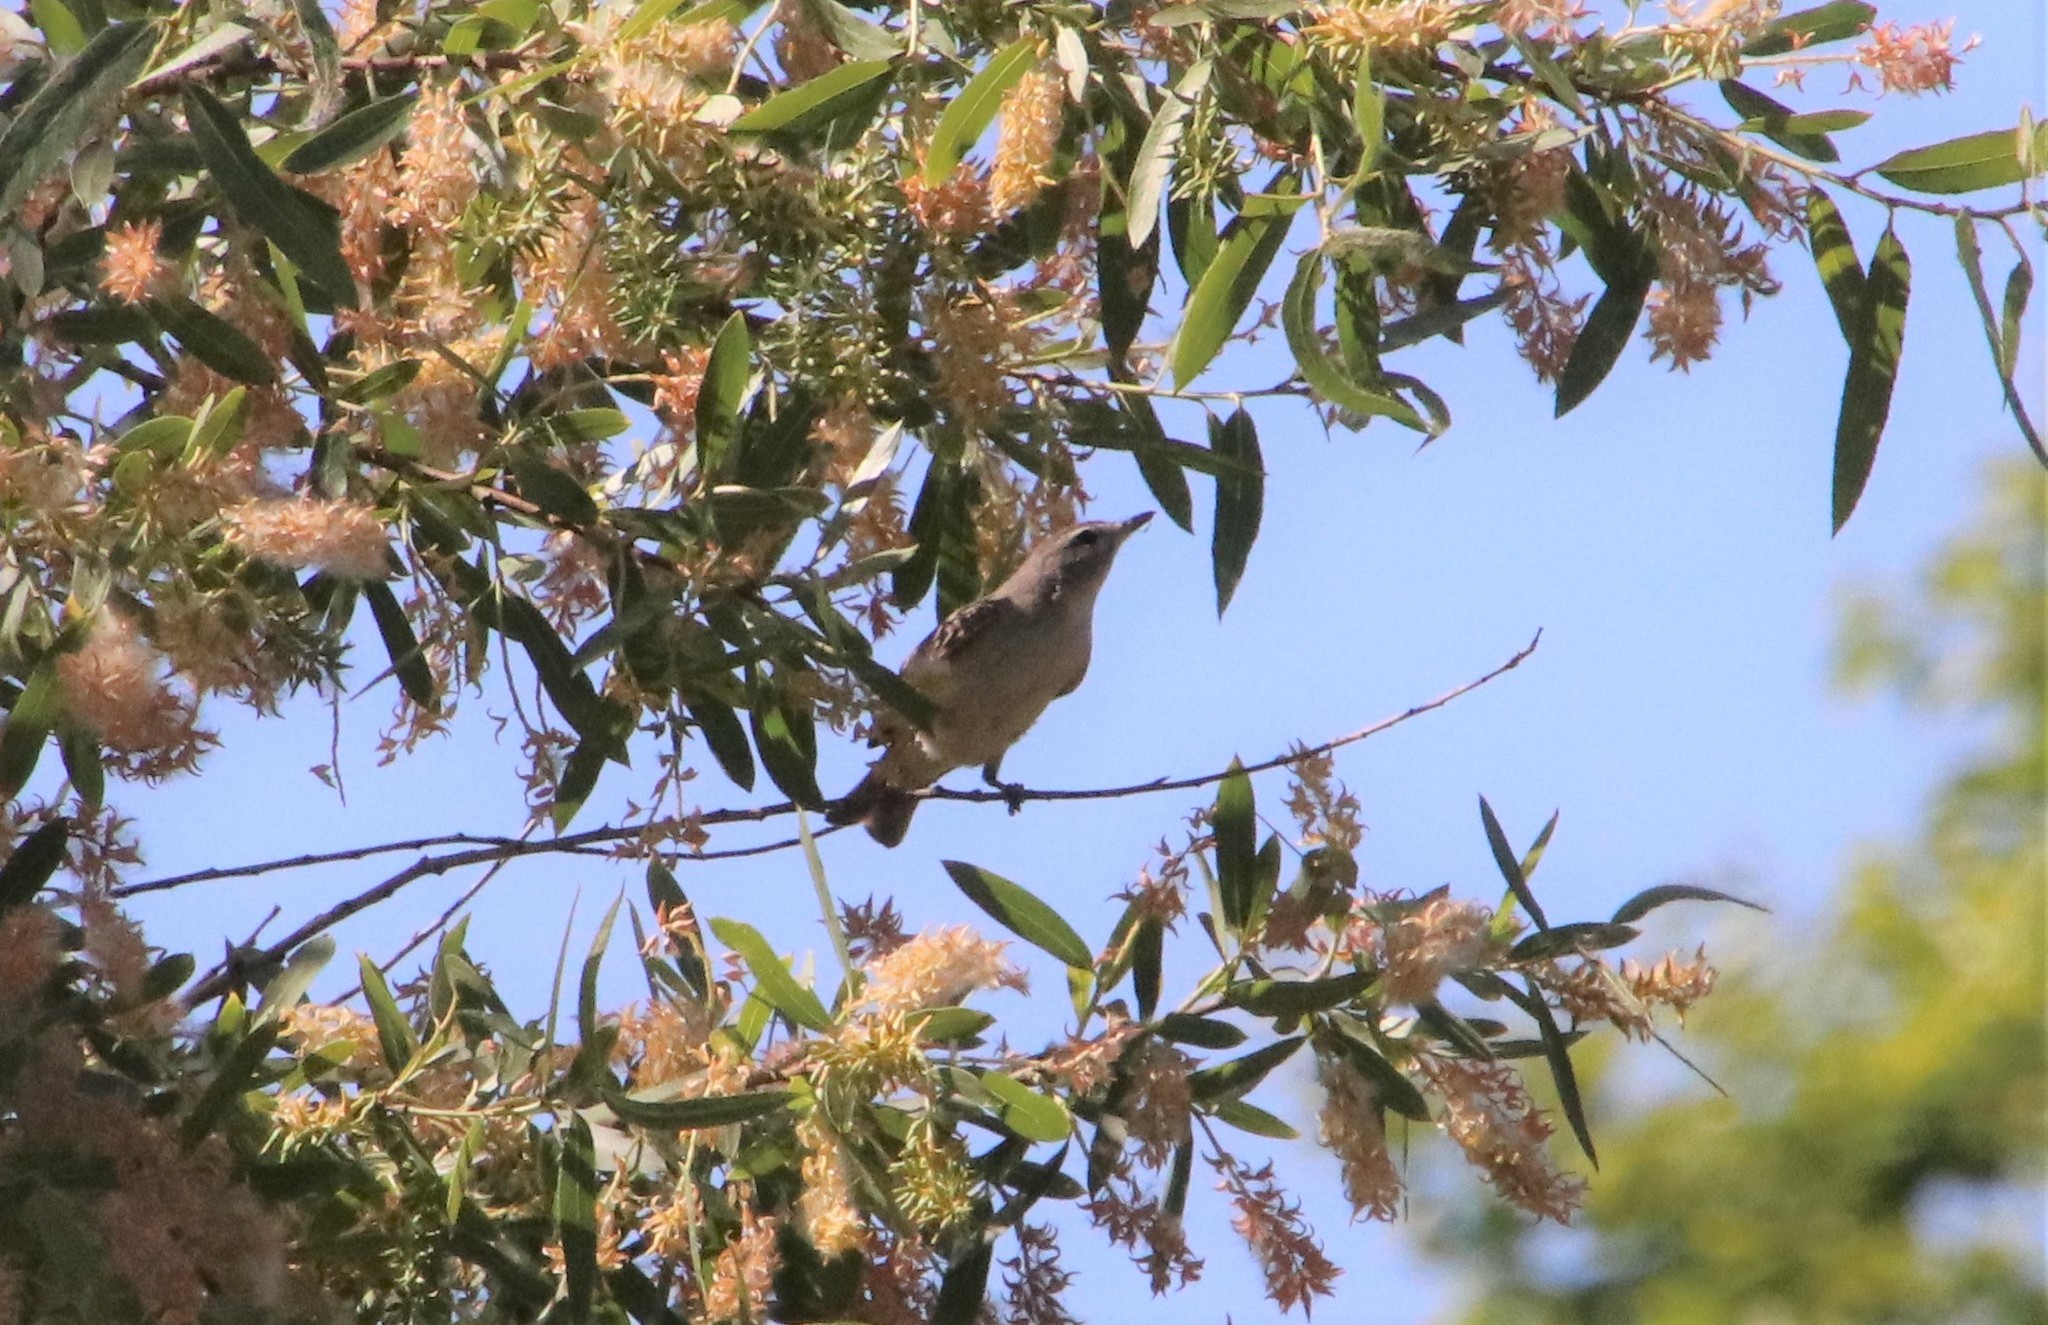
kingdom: Animalia
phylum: Chordata
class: Aves
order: Passeriformes
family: Vireonidae
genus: Vireo
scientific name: Vireo gilvus
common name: Warbling vireo
